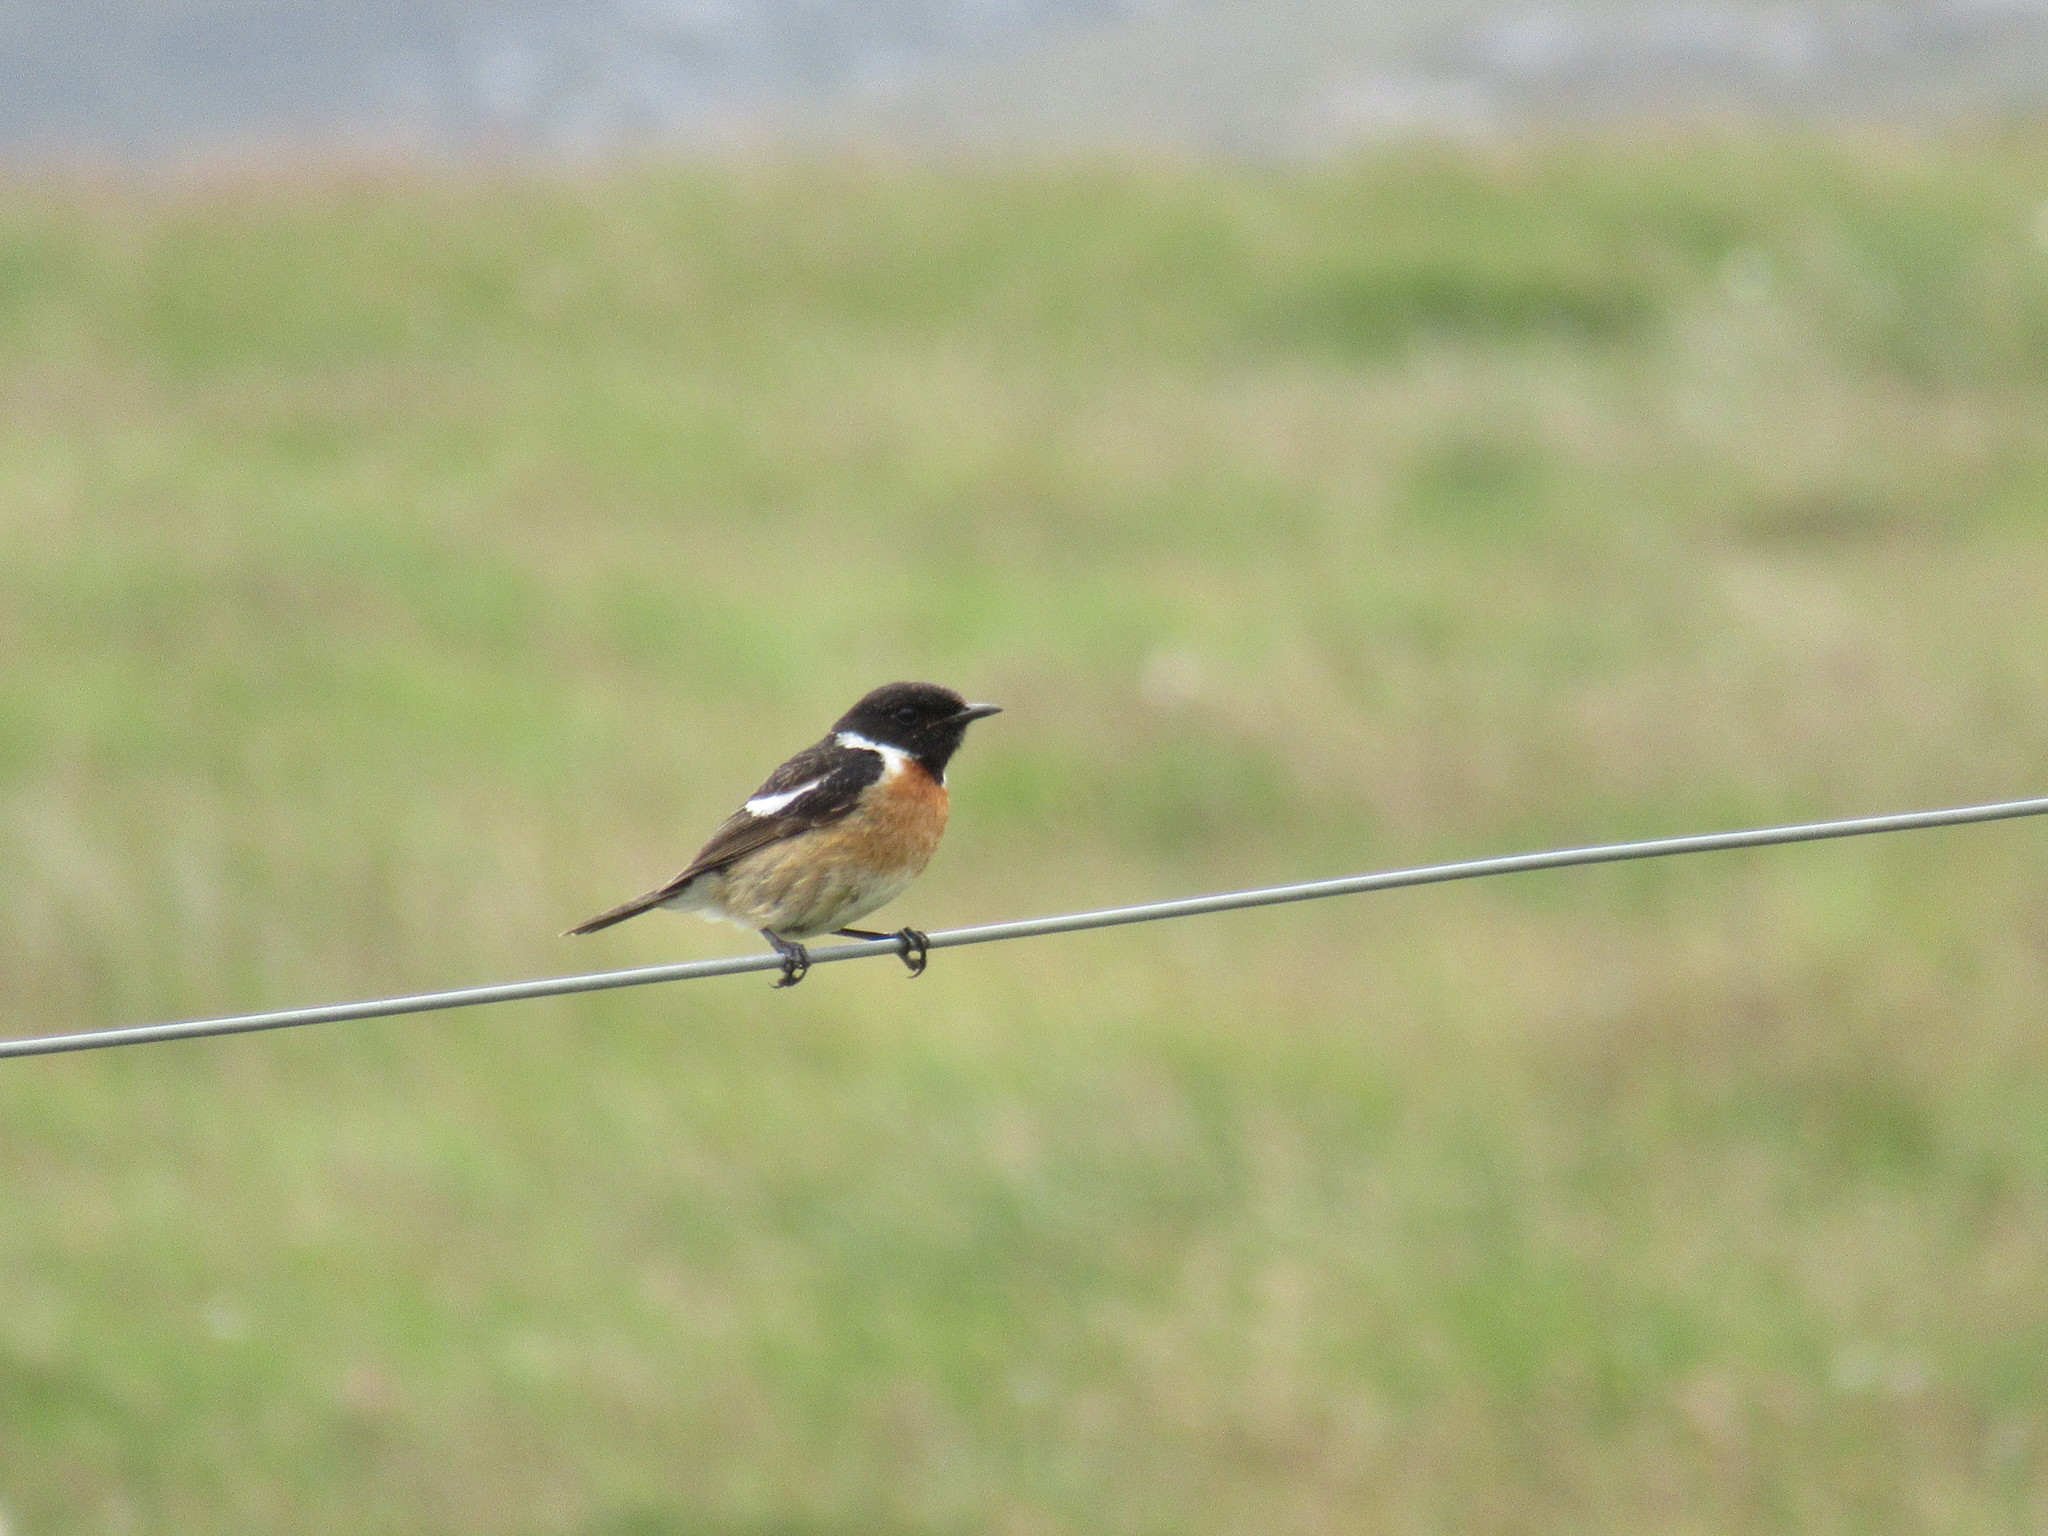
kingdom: Animalia
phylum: Chordata
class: Aves
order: Passeriformes
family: Muscicapidae
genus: Saxicola
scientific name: Saxicola rubicola
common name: European stonechat
